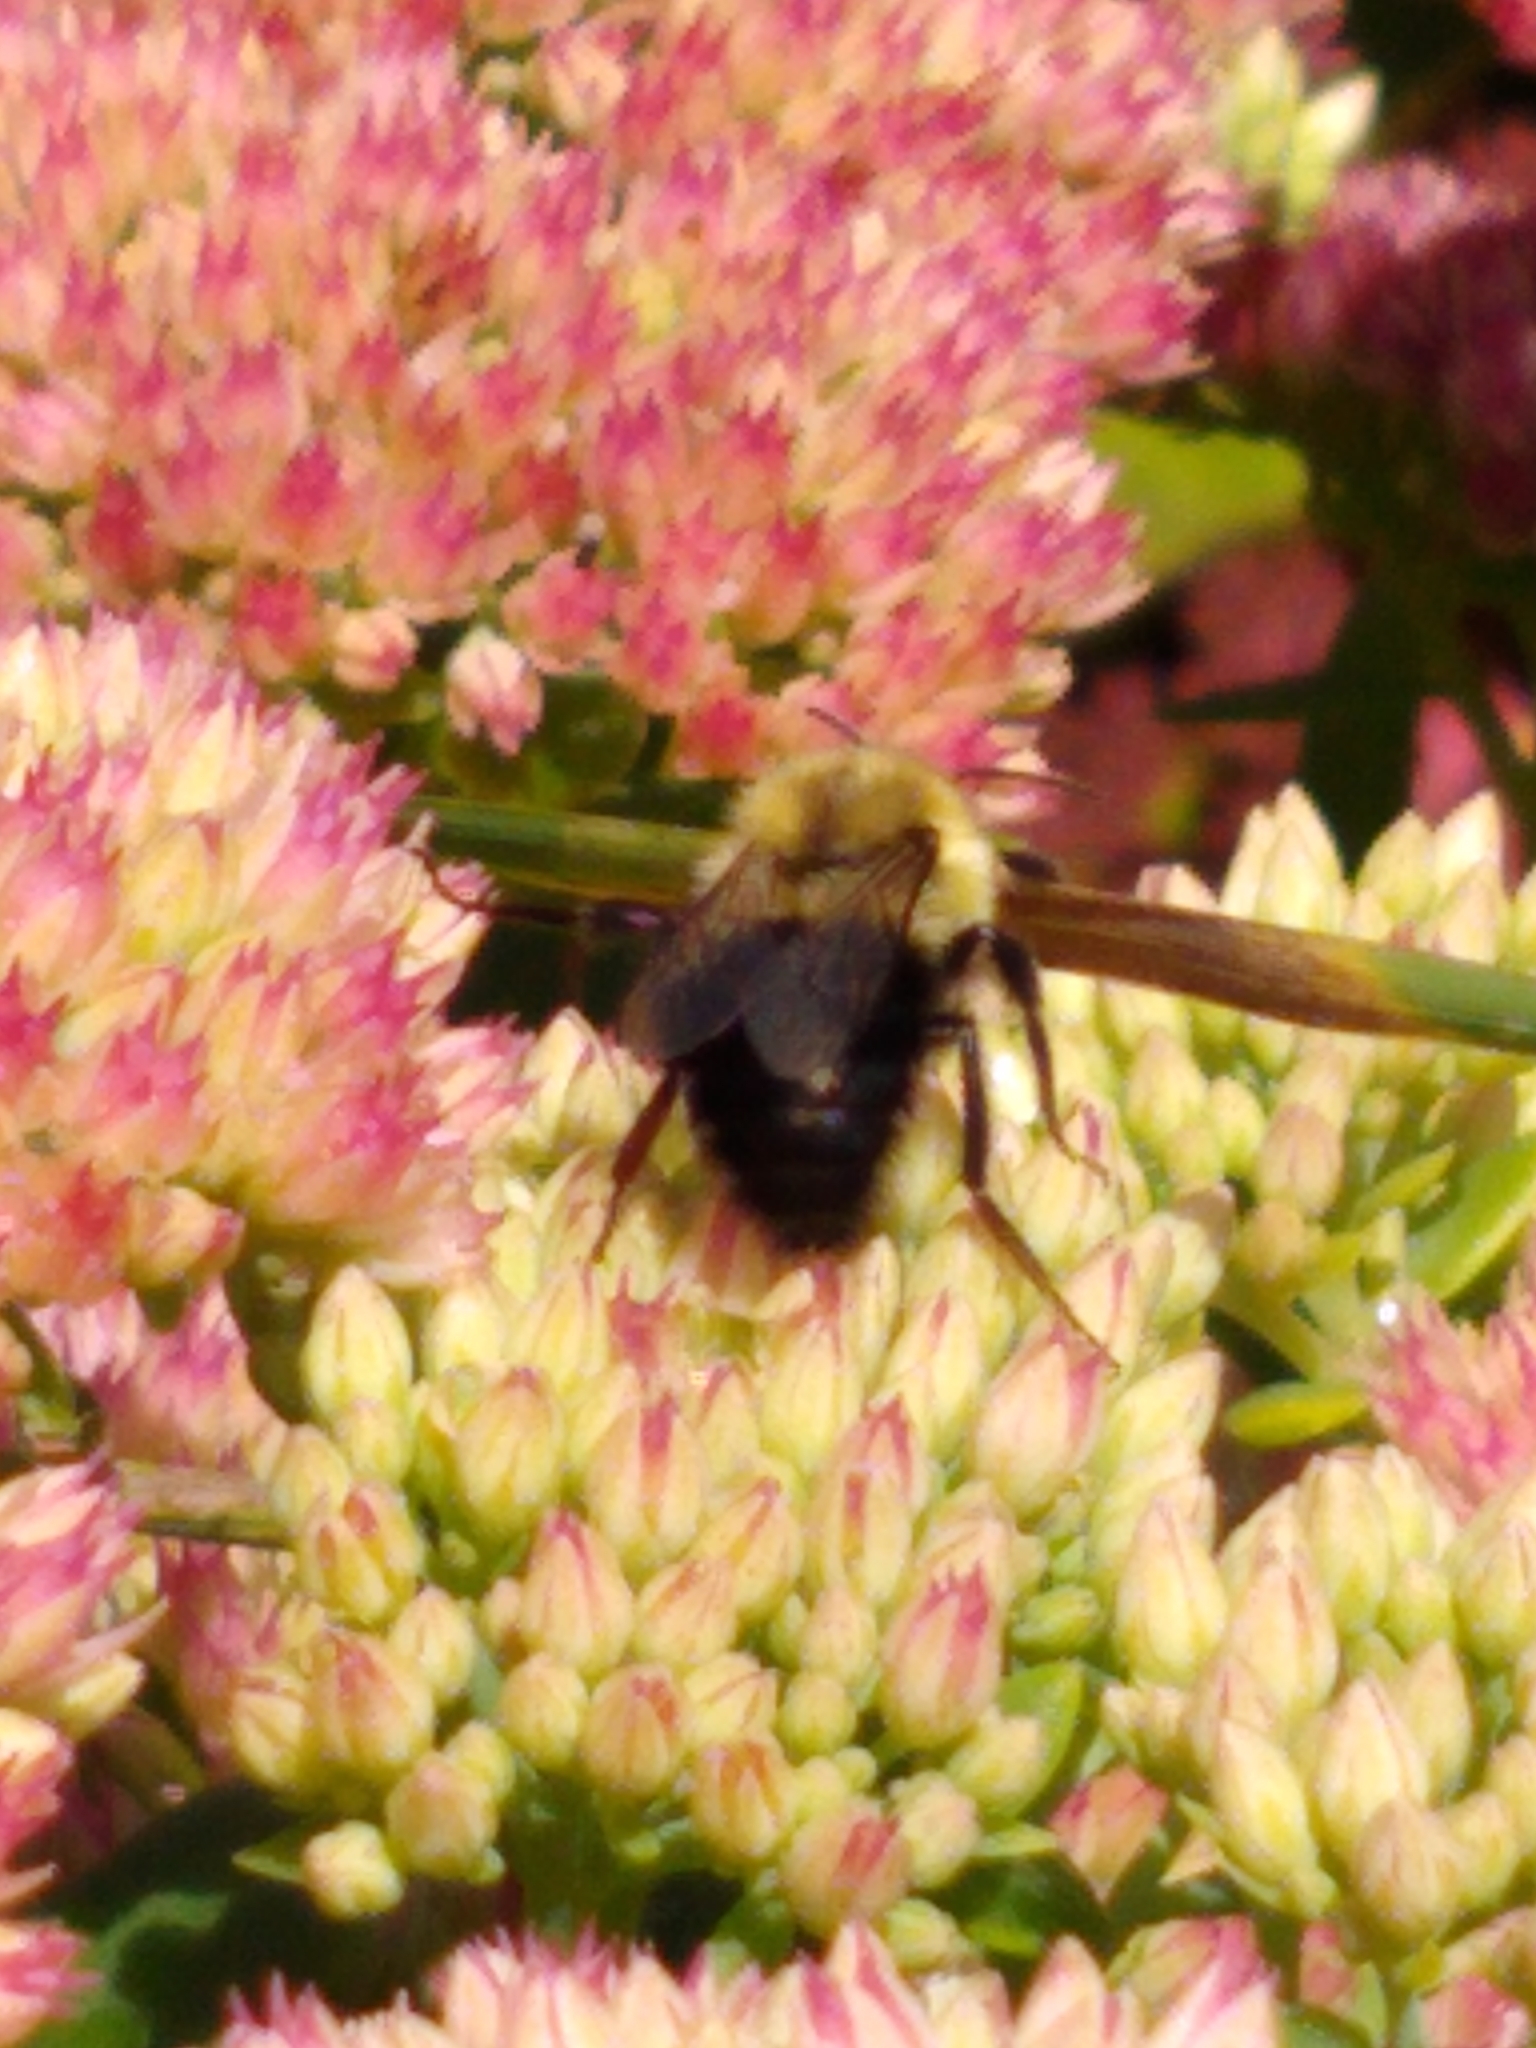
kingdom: Animalia
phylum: Arthropoda
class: Insecta
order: Hymenoptera
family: Apidae
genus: Bombus
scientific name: Bombus impatiens
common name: Common eastern bumble bee
